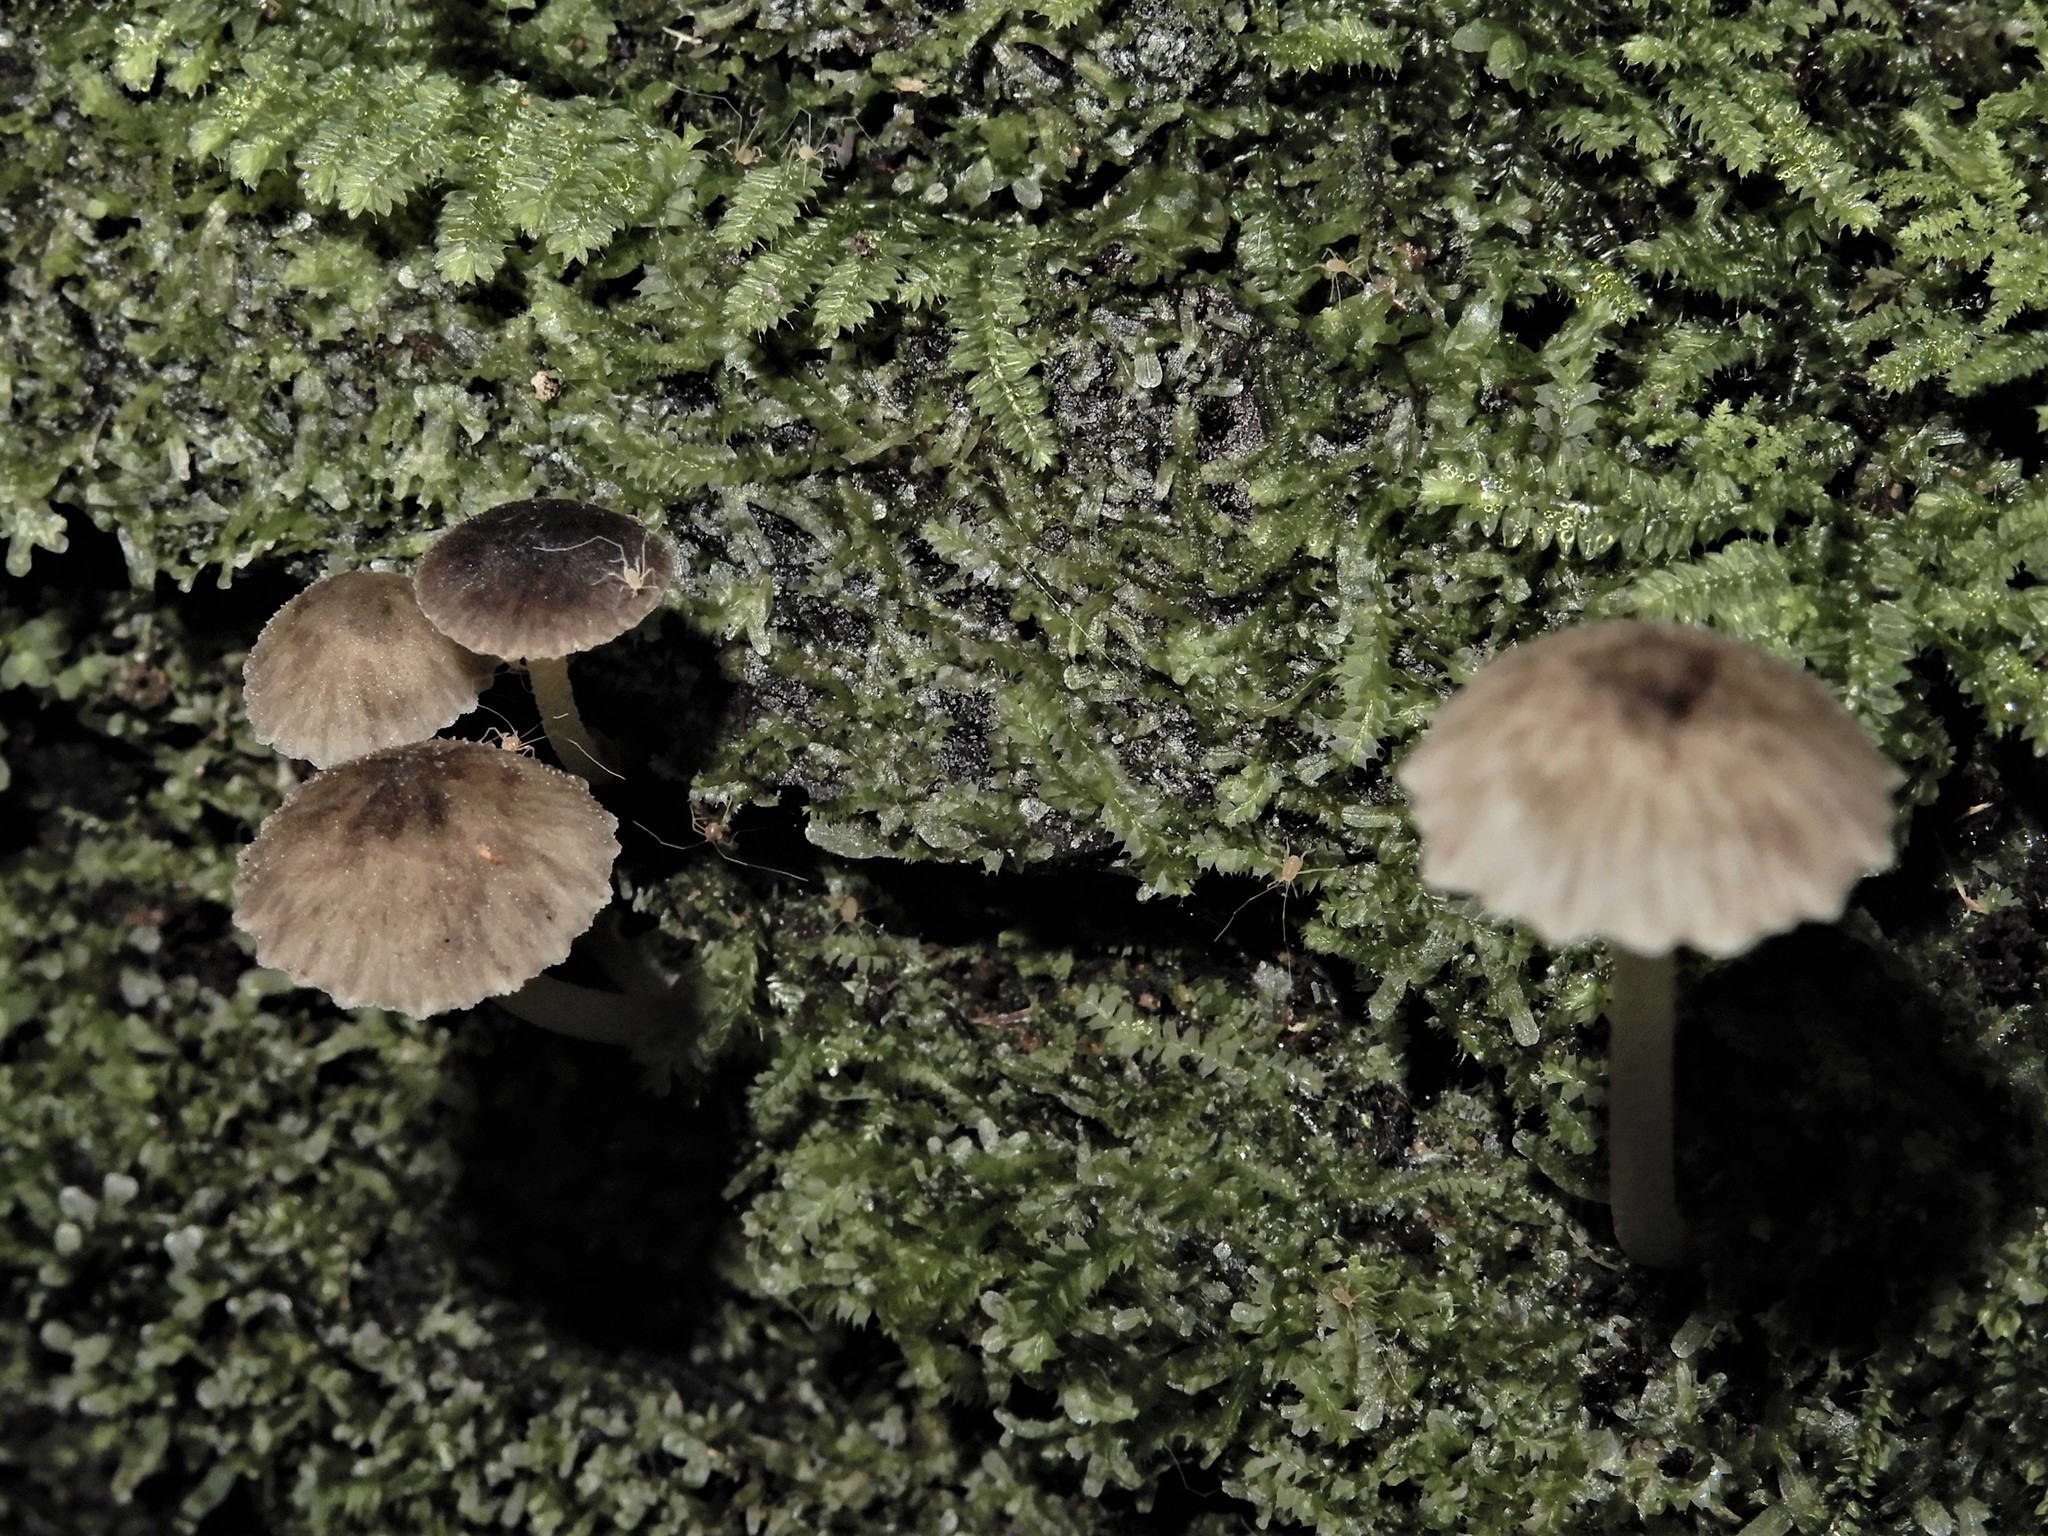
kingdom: Fungi
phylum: Basidiomycota
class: Agaricomycetes
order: Agaricales
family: Porotheleaceae
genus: Pseudohydropus
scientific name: Pseudohydropus parafunebris
